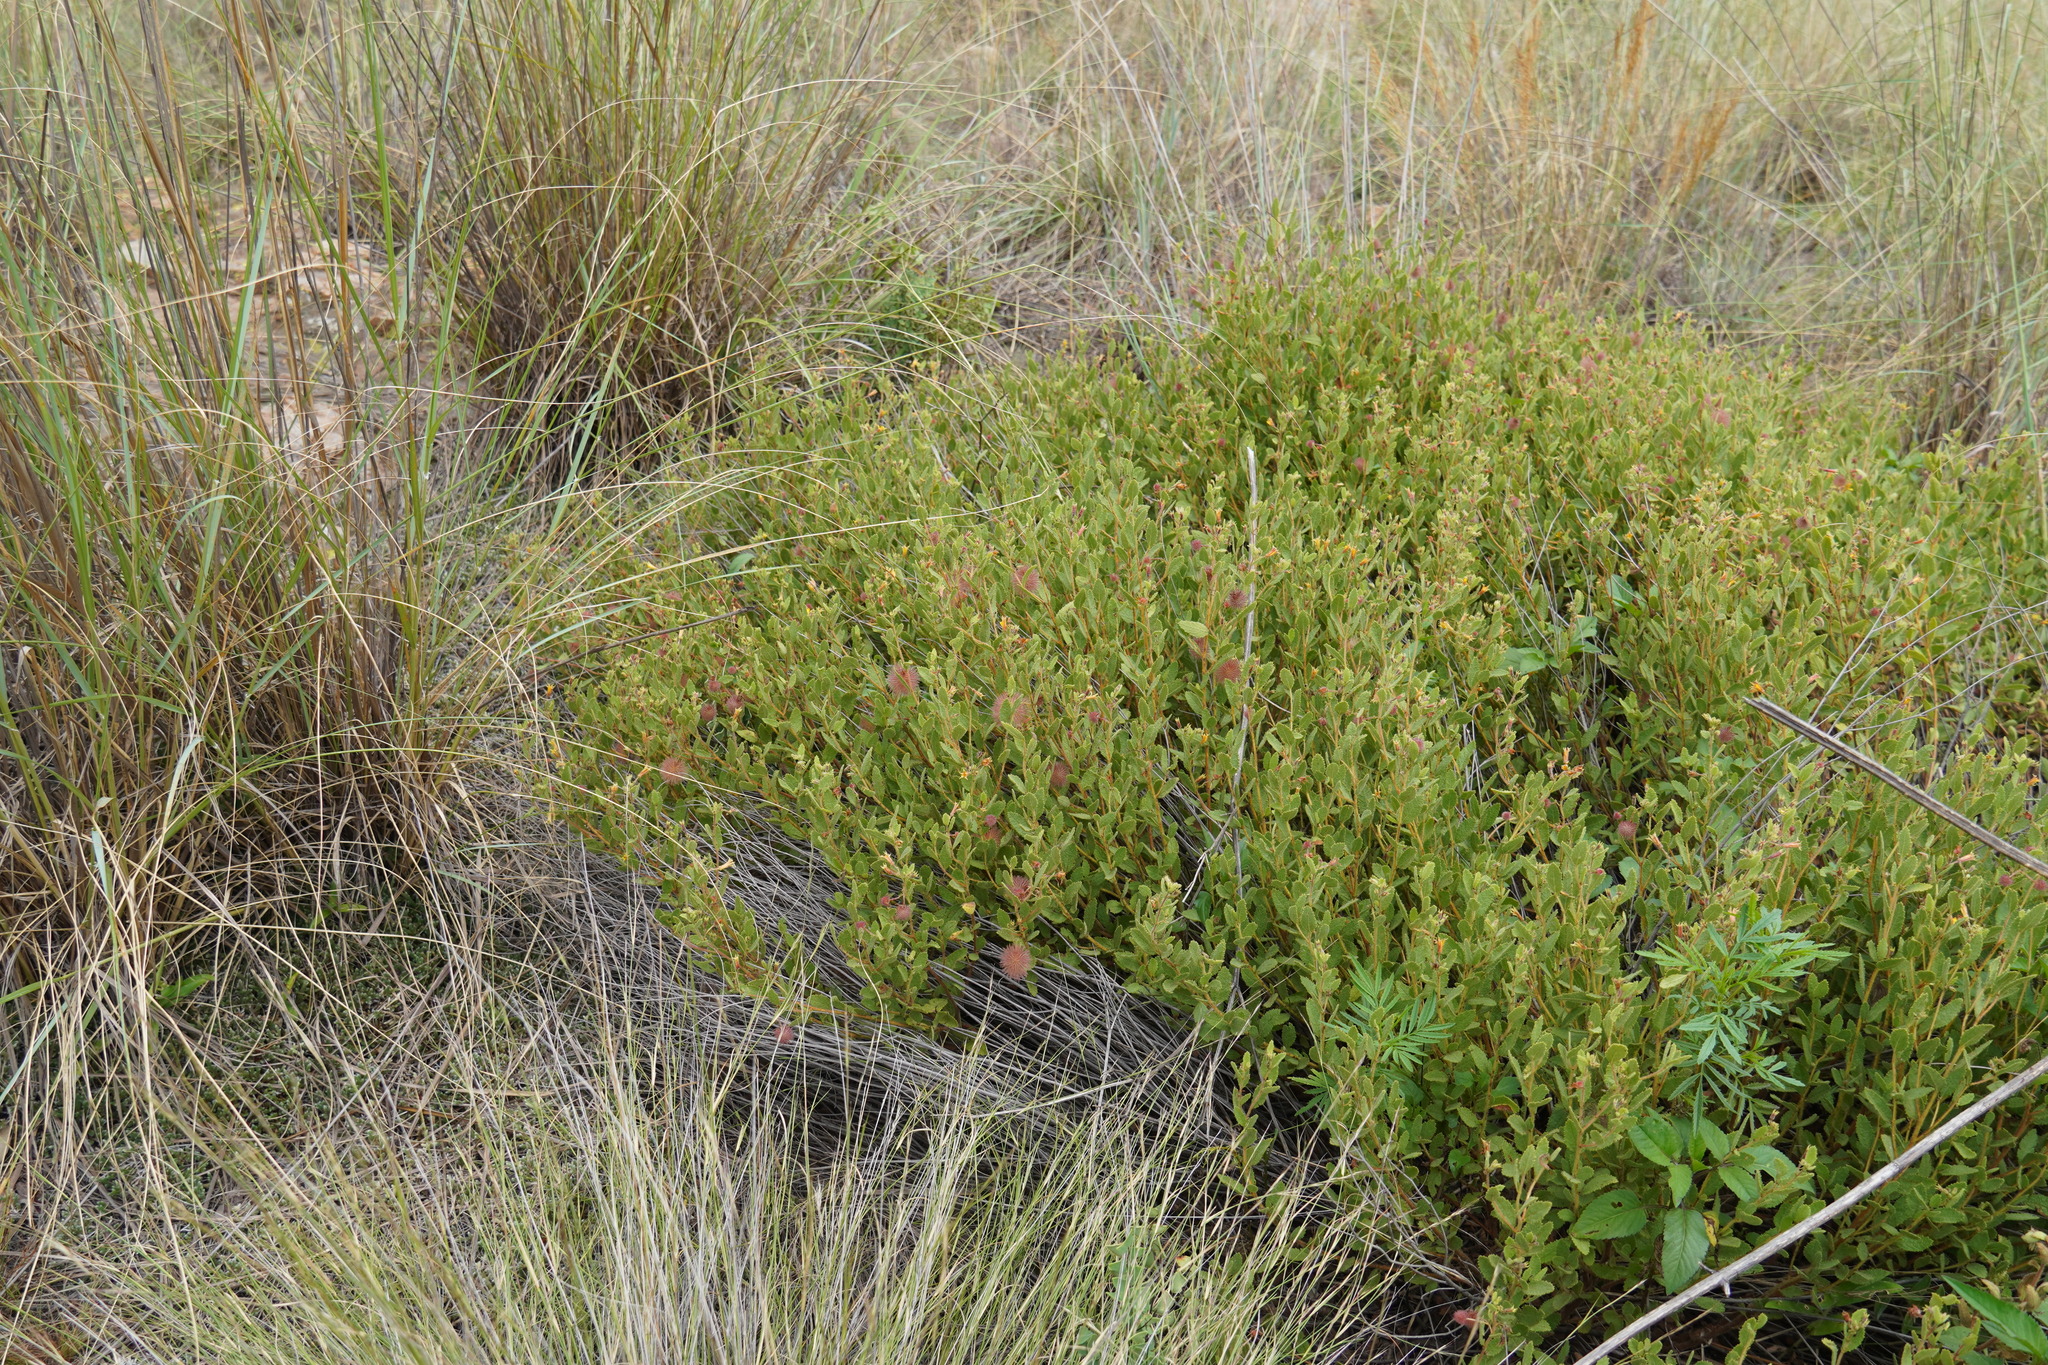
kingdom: Plantae
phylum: Tracheophyta
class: Magnoliopsida
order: Malvales
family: Malvaceae
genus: Triumfetta
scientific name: Triumfetta sonderi
